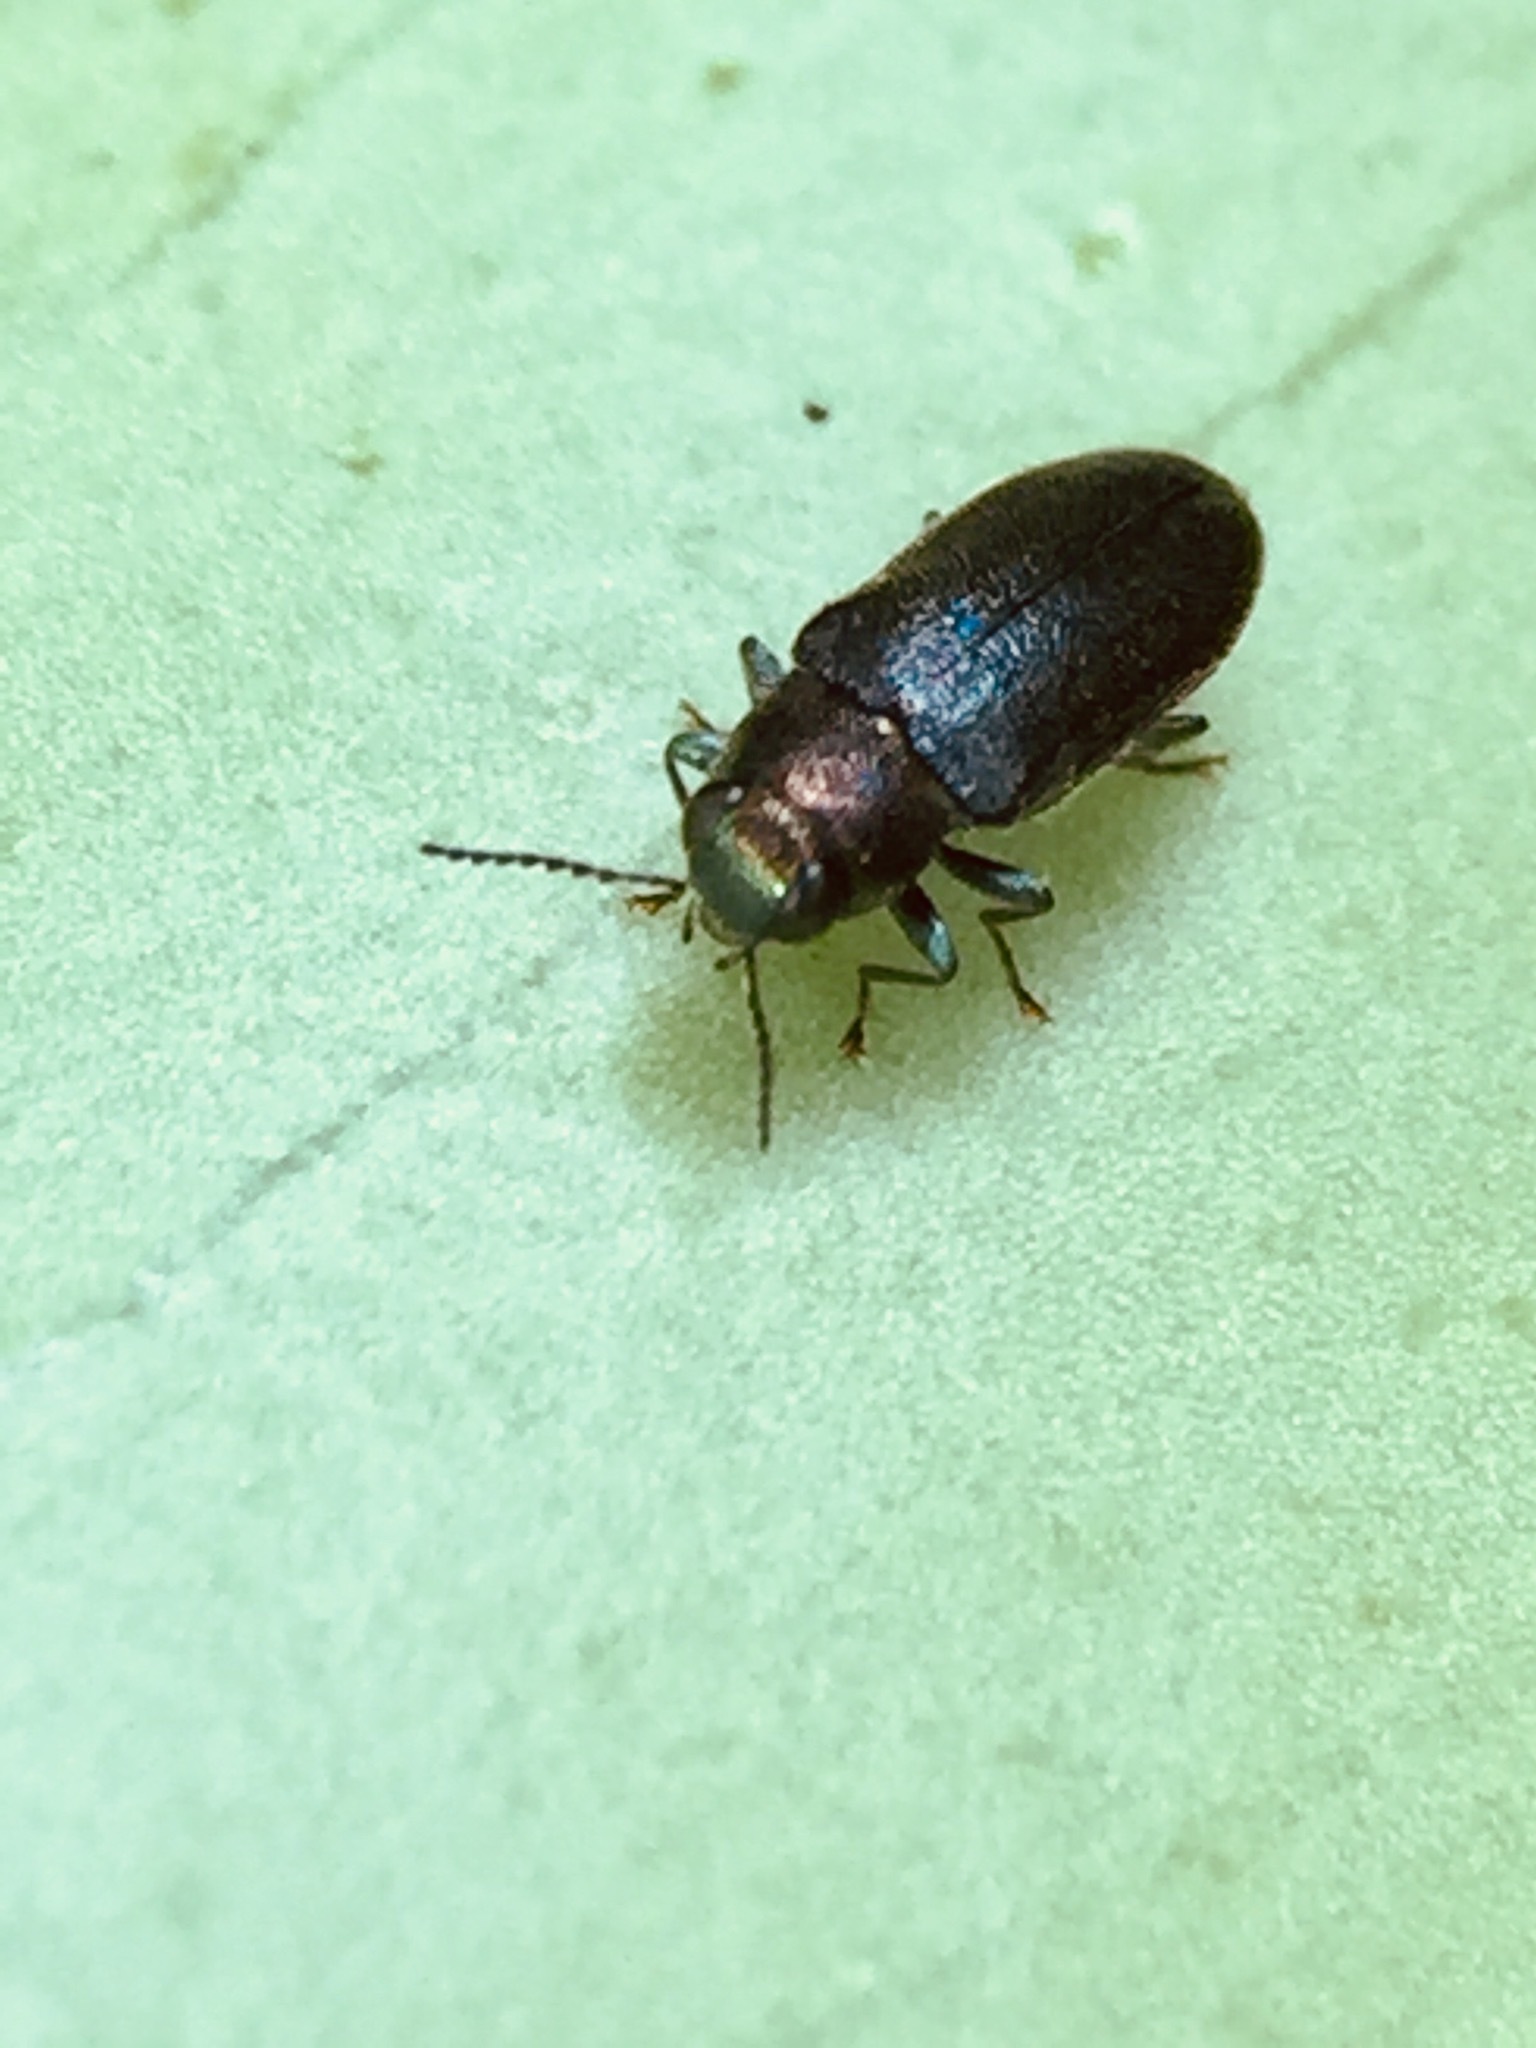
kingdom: Animalia
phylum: Arthropoda
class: Insecta
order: Coleoptera
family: Buprestidae
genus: Maoraxia
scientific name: Maoraxia eremita
